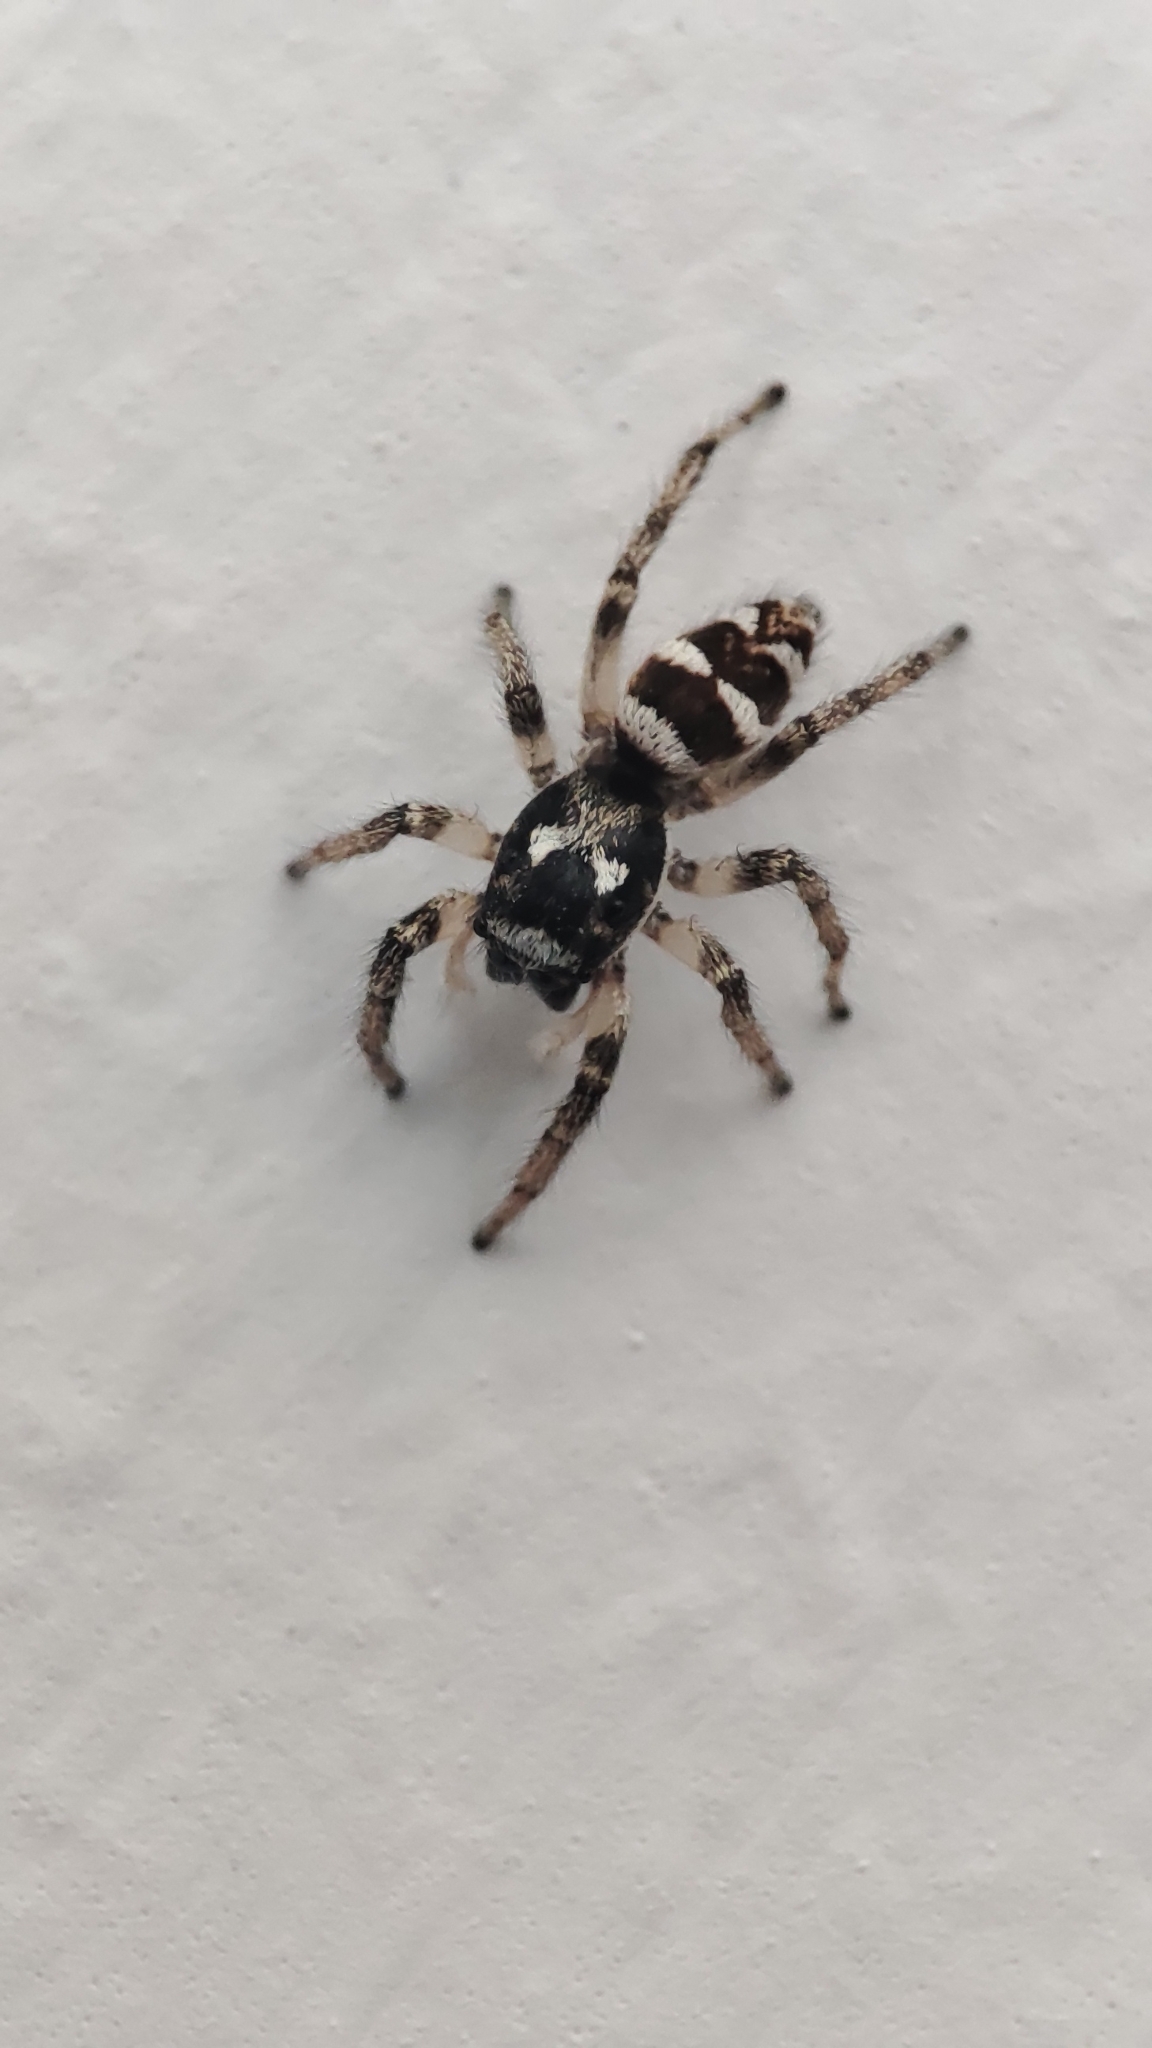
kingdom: Animalia
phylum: Arthropoda
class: Arachnida
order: Araneae
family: Salticidae
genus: Salticus
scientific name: Salticus scenicus
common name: Zebra jumper
